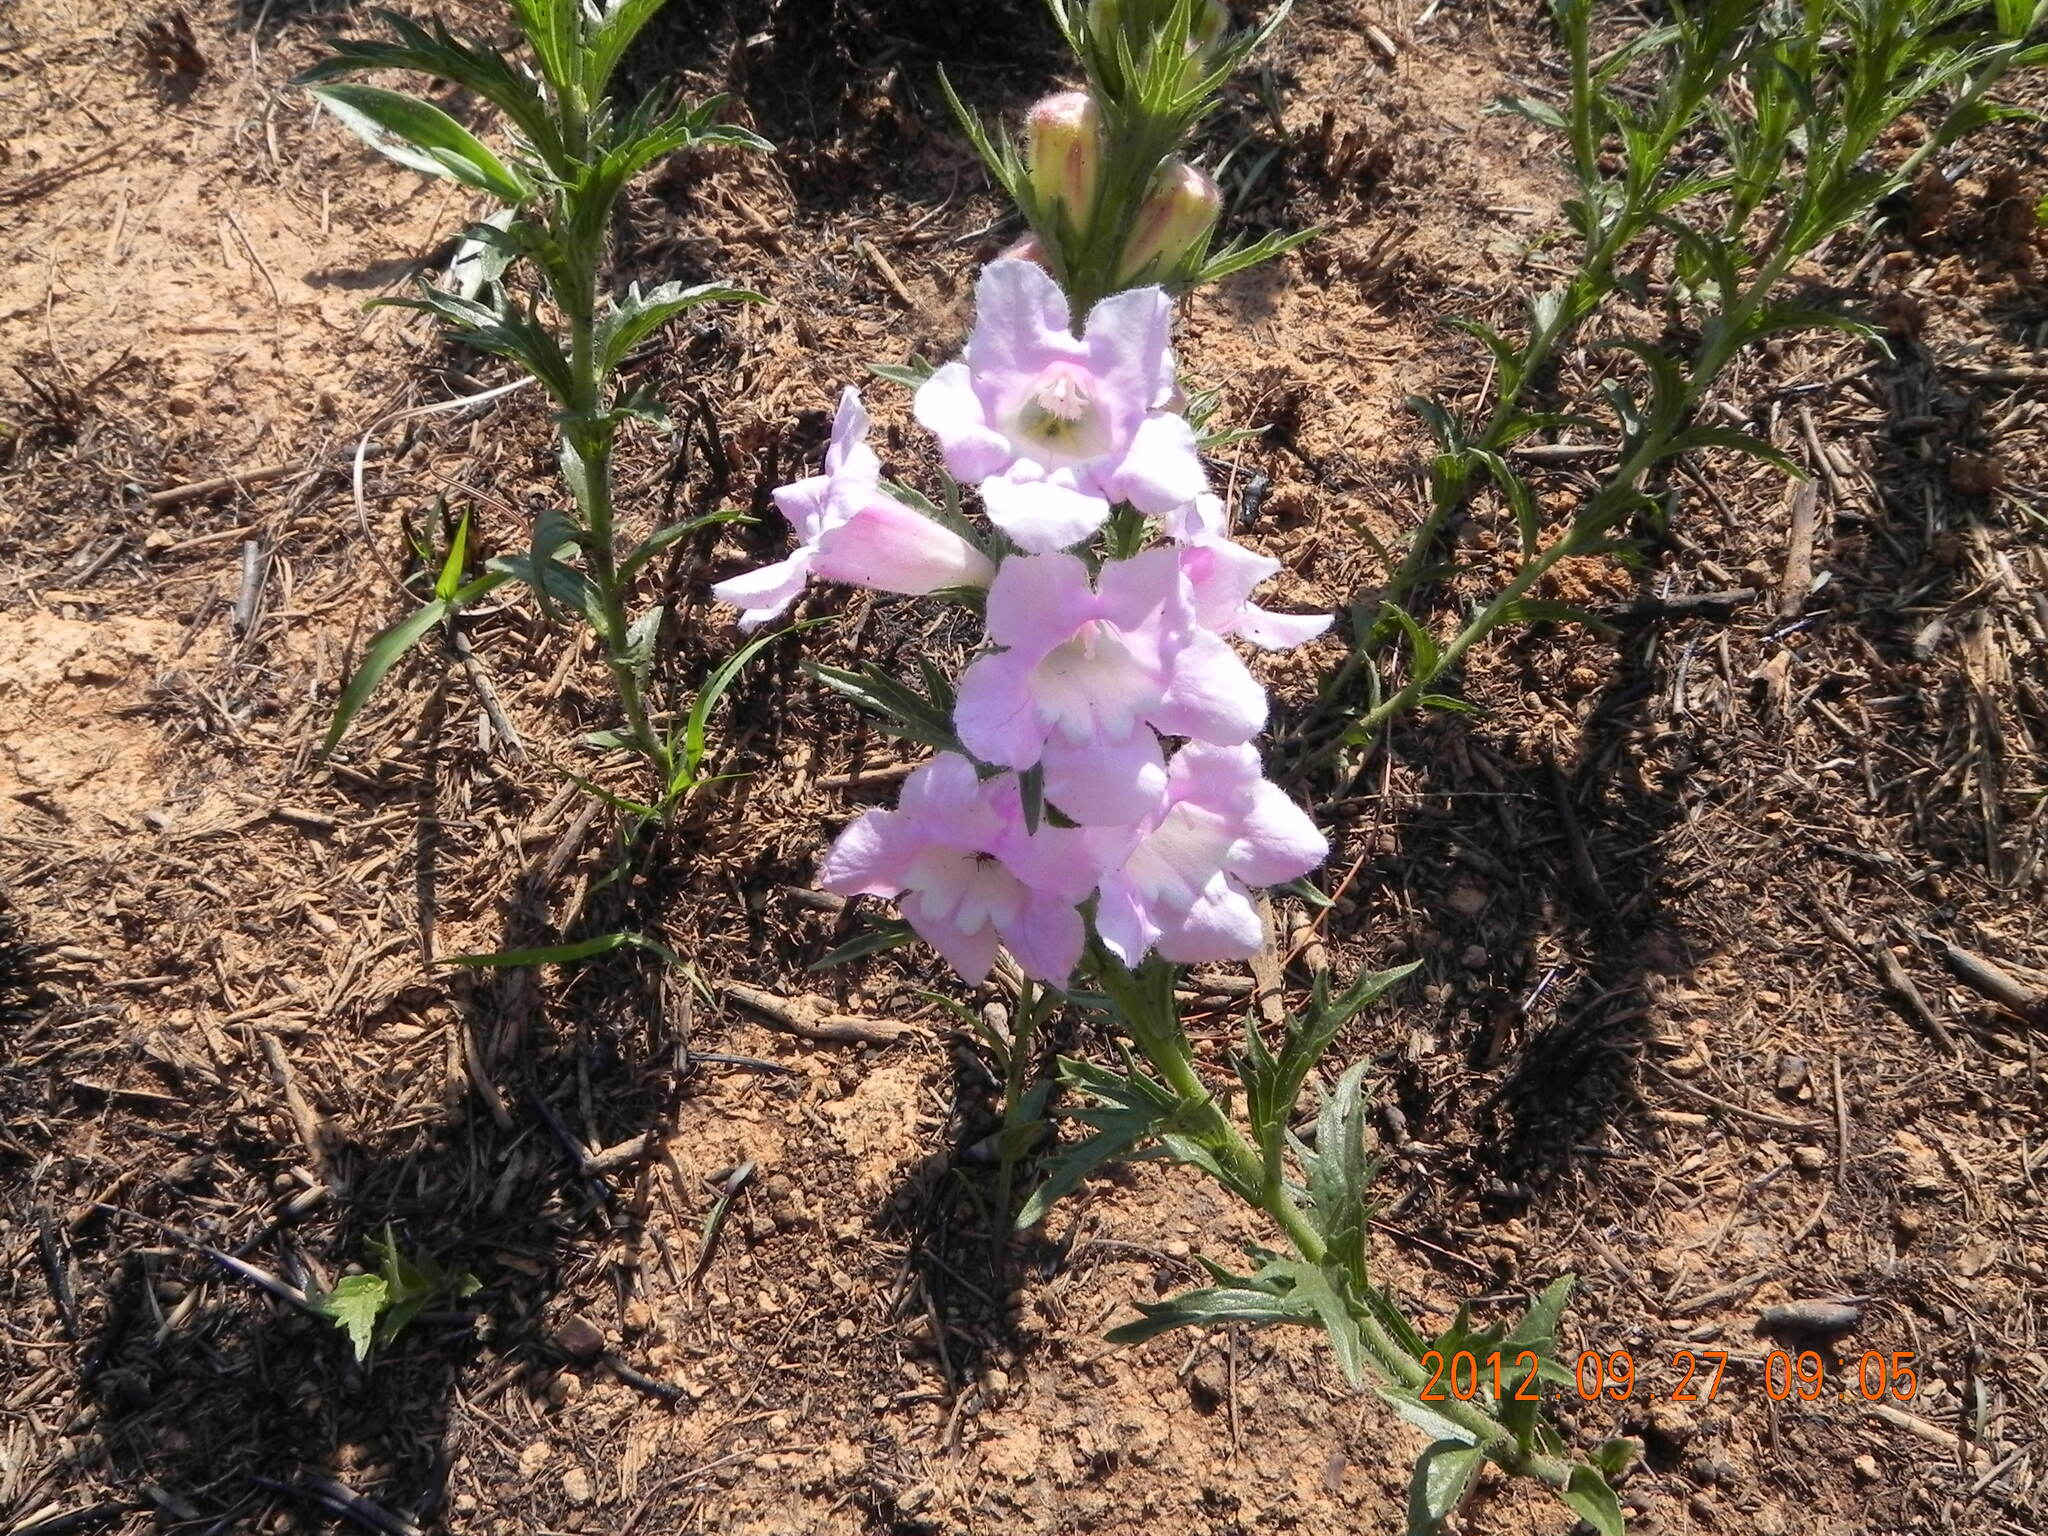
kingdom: Plantae
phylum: Tracheophyta
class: Magnoliopsida
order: Lamiales
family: Orobanchaceae
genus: Graderia
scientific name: Graderia scabra
